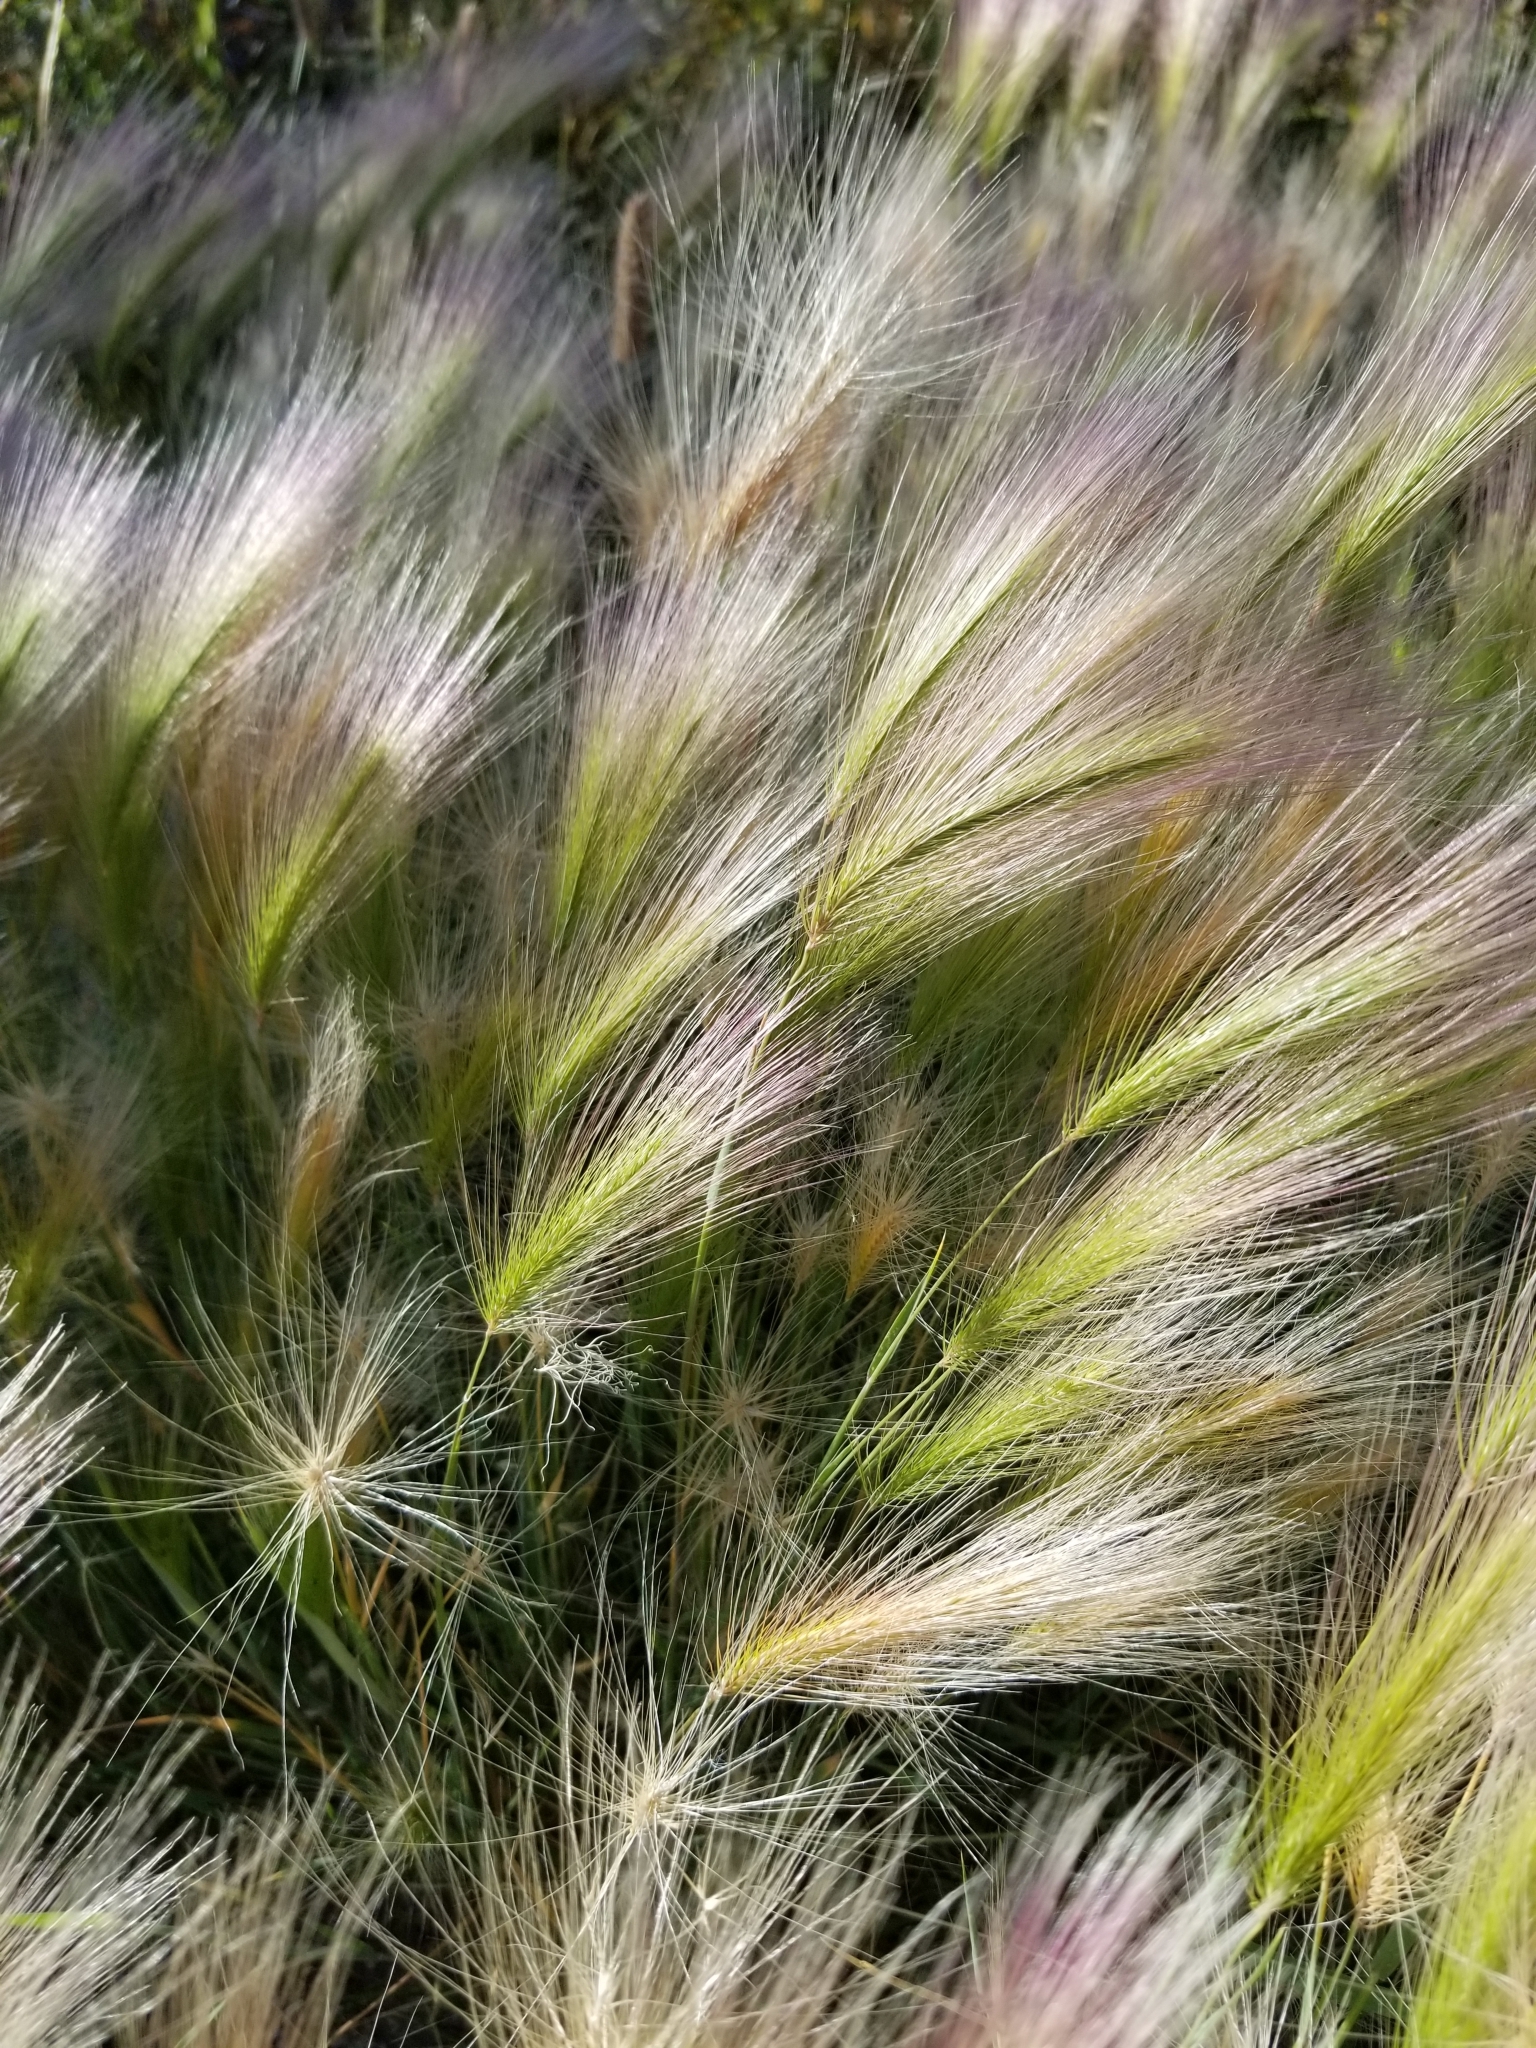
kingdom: Plantae
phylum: Tracheophyta
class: Liliopsida
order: Poales
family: Poaceae
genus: Hordeum
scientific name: Hordeum jubatum
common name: Foxtail barley
